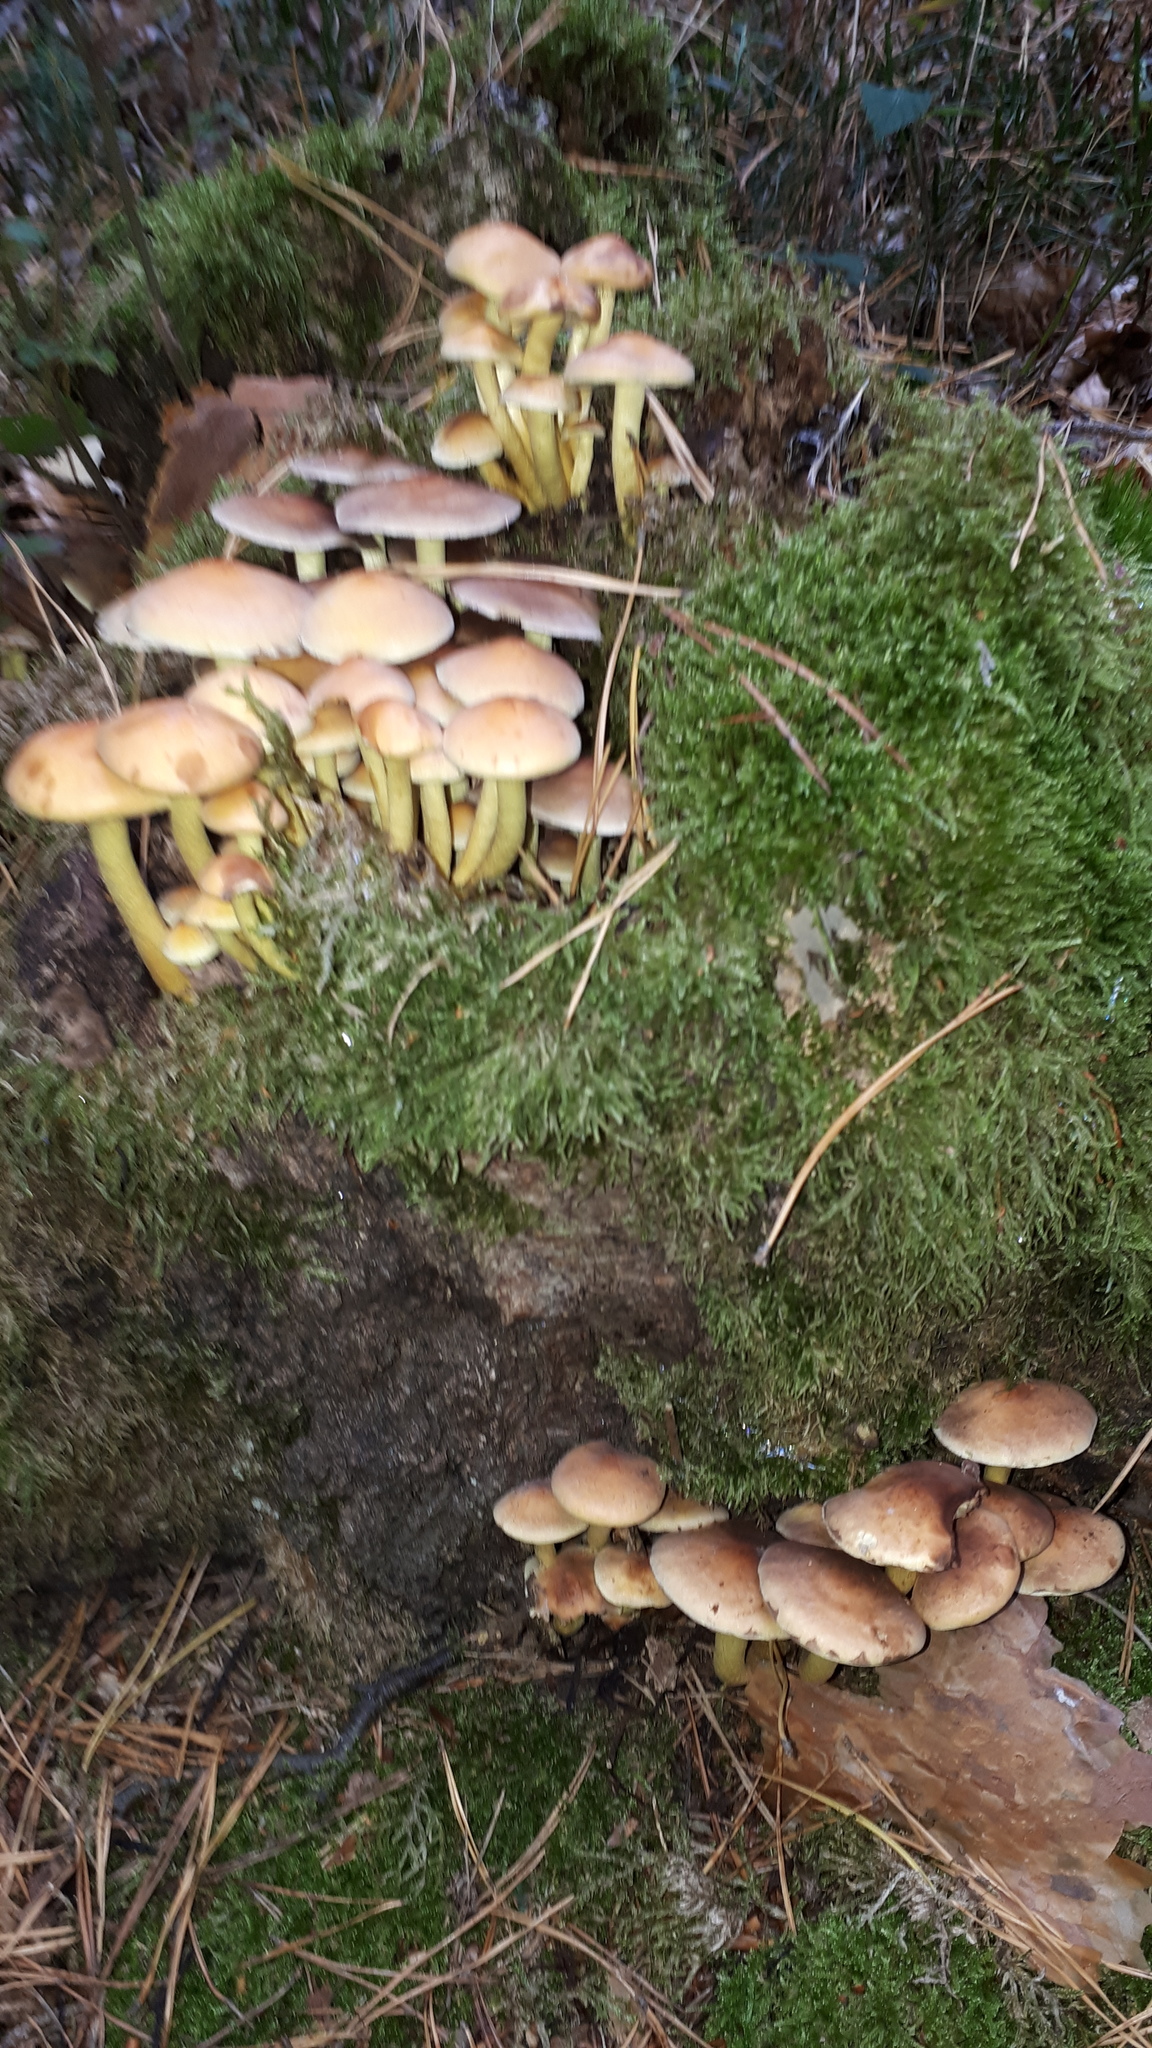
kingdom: Fungi
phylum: Basidiomycota
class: Agaricomycetes
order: Agaricales
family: Strophariaceae
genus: Hypholoma
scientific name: Hypholoma fasciculare
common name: Sulphur tuft
